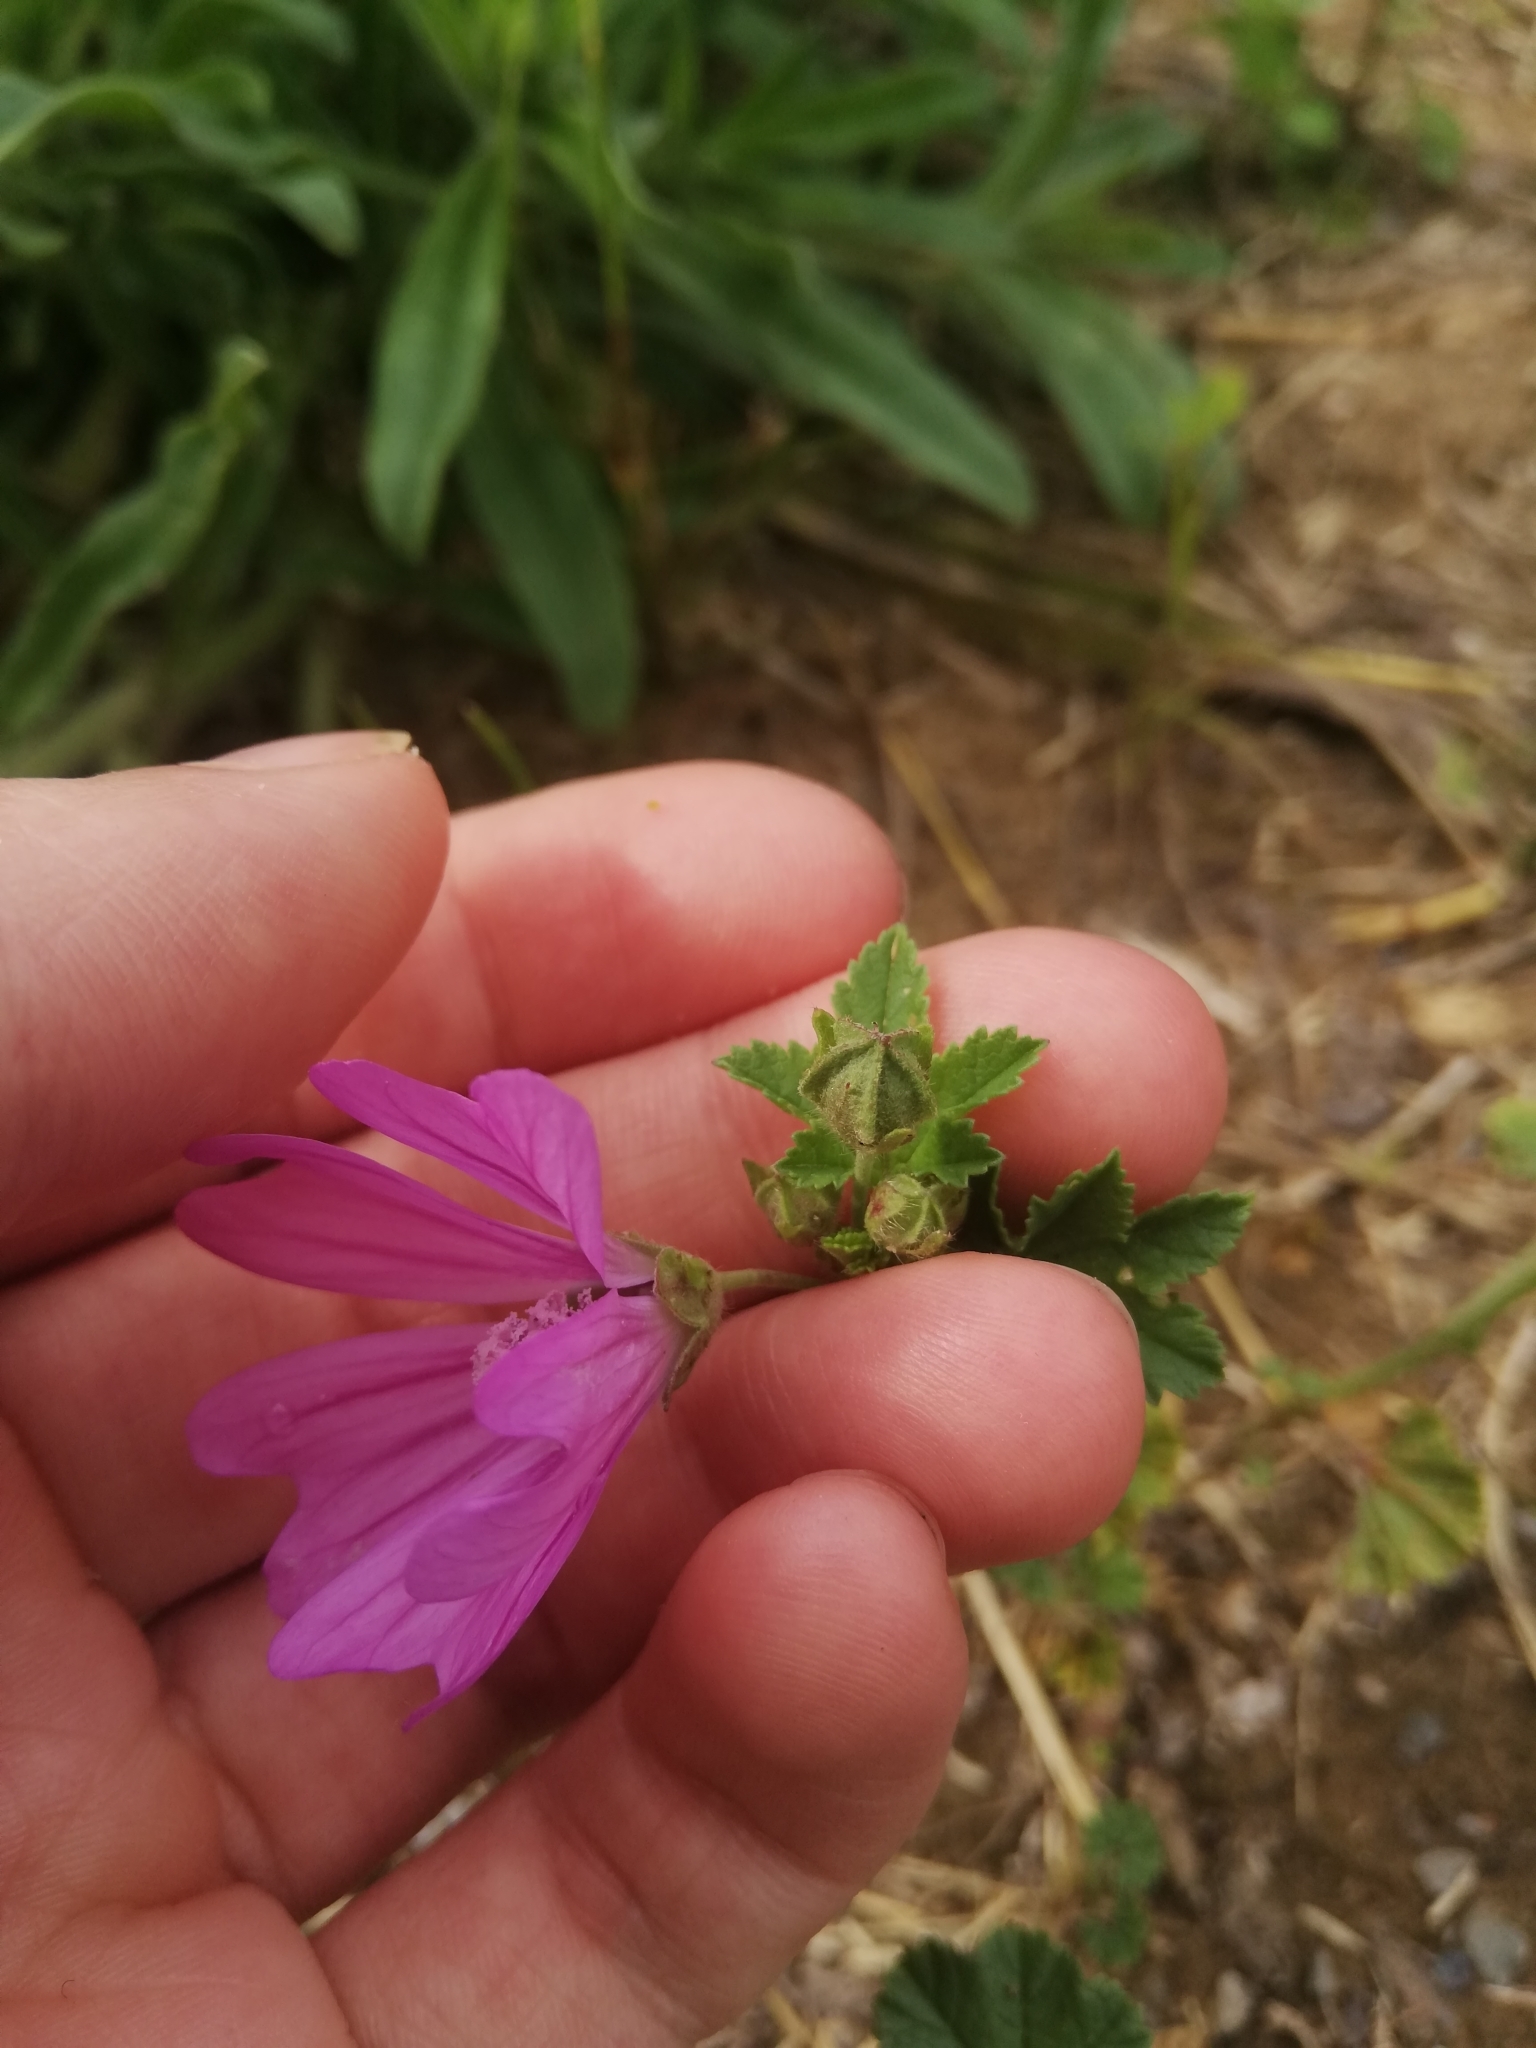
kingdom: Plantae
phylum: Tracheophyta
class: Magnoliopsida
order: Malvales
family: Malvaceae
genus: Malva
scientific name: Malva sylvestris
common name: Common mallow
